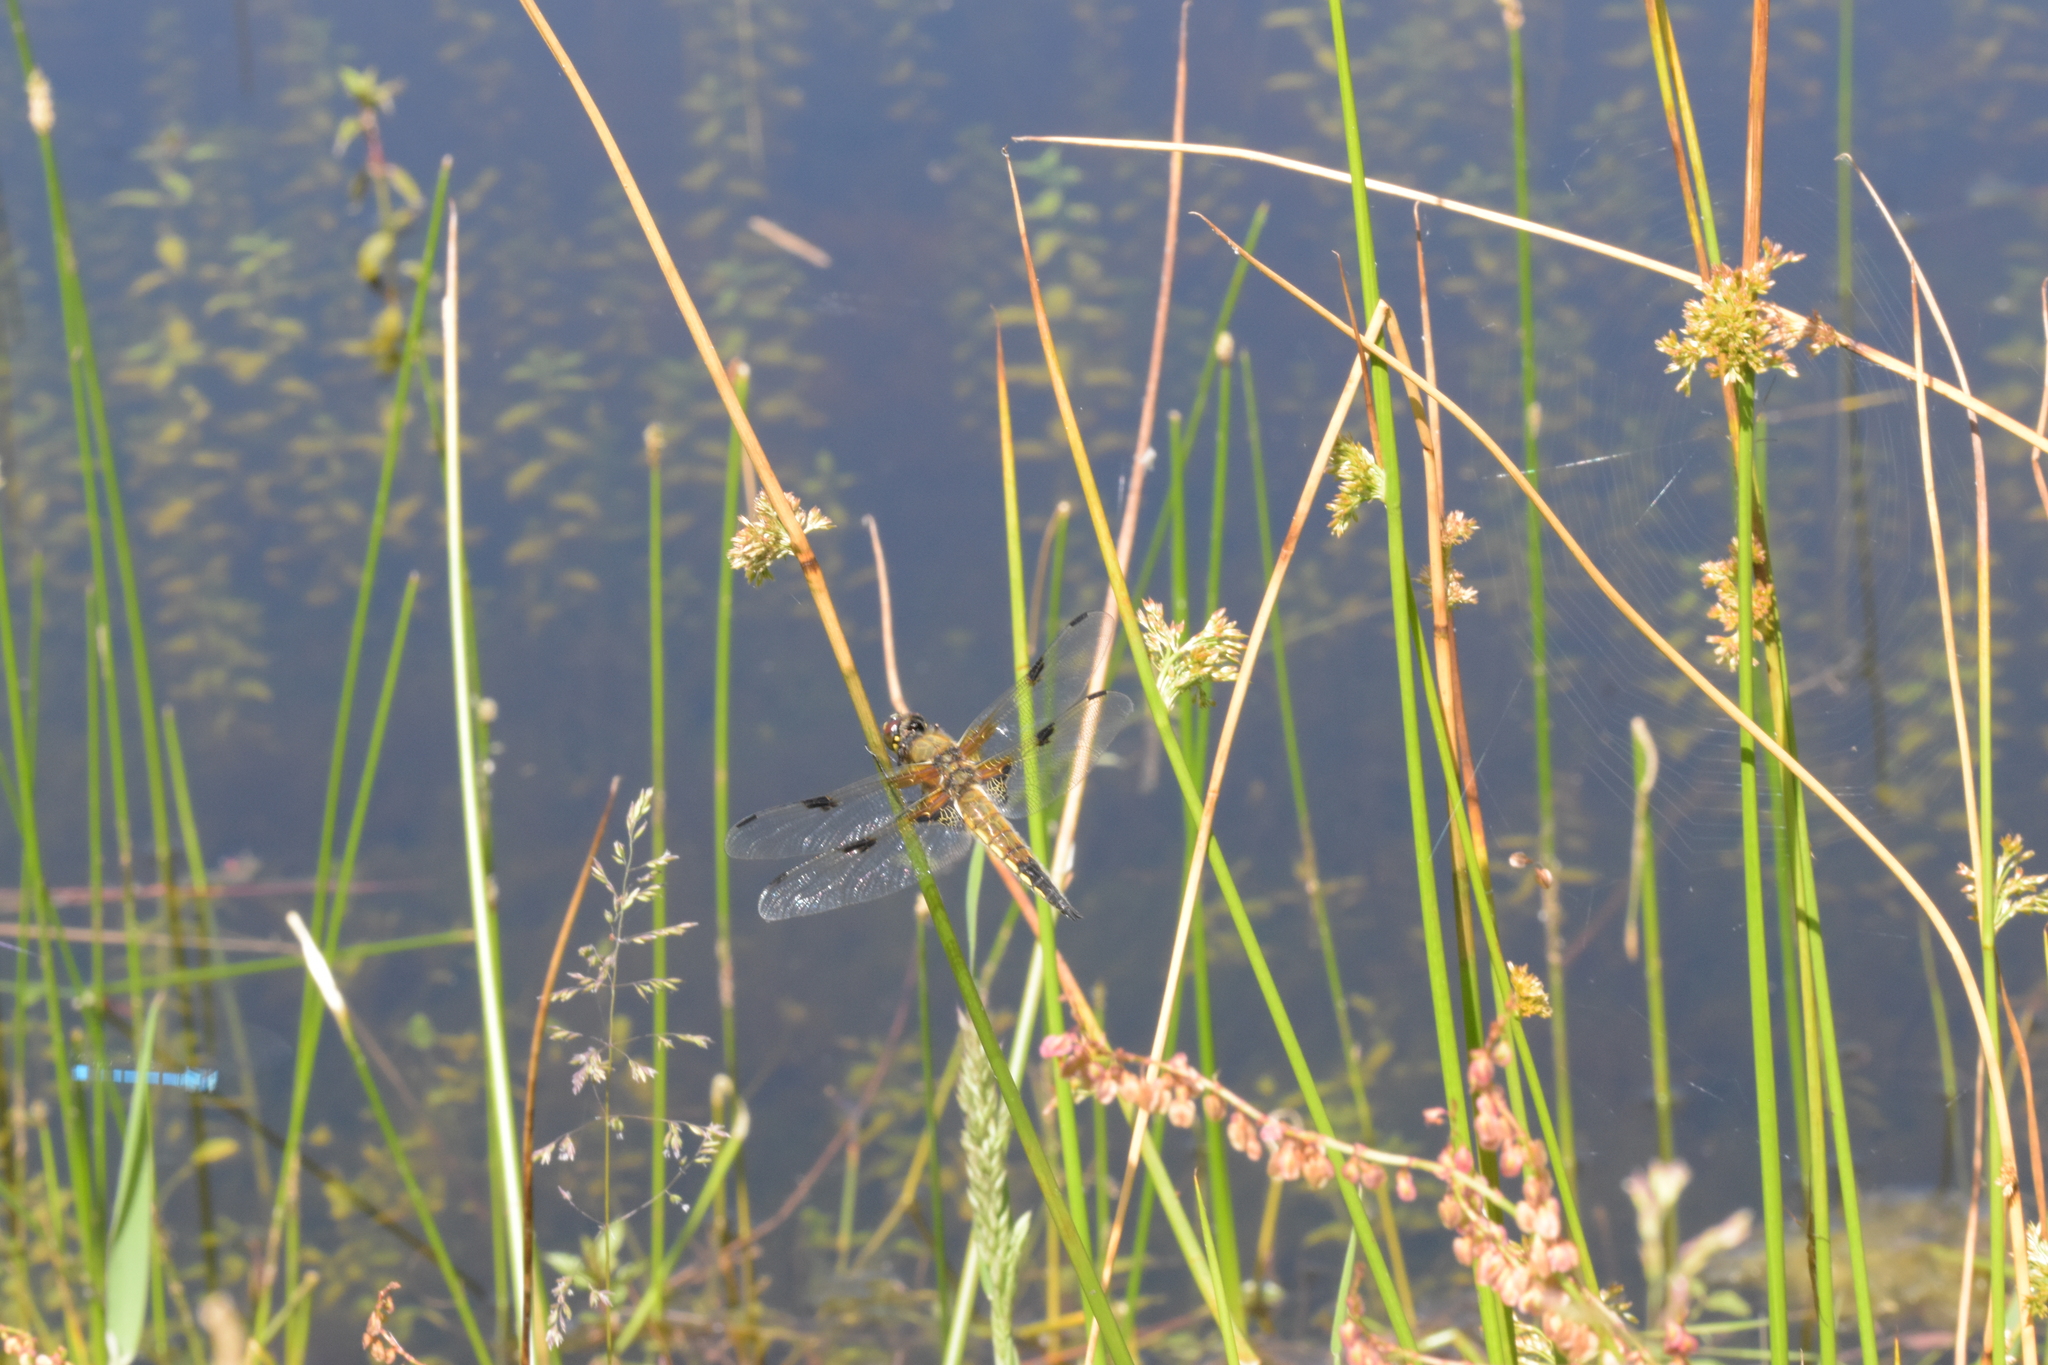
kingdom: Animalia
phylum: Arthropoda
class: Insecta
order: Odonata
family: Libellulidae
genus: Libellula
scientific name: Libellula quadrimaculata
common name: Four-spotted chaser
